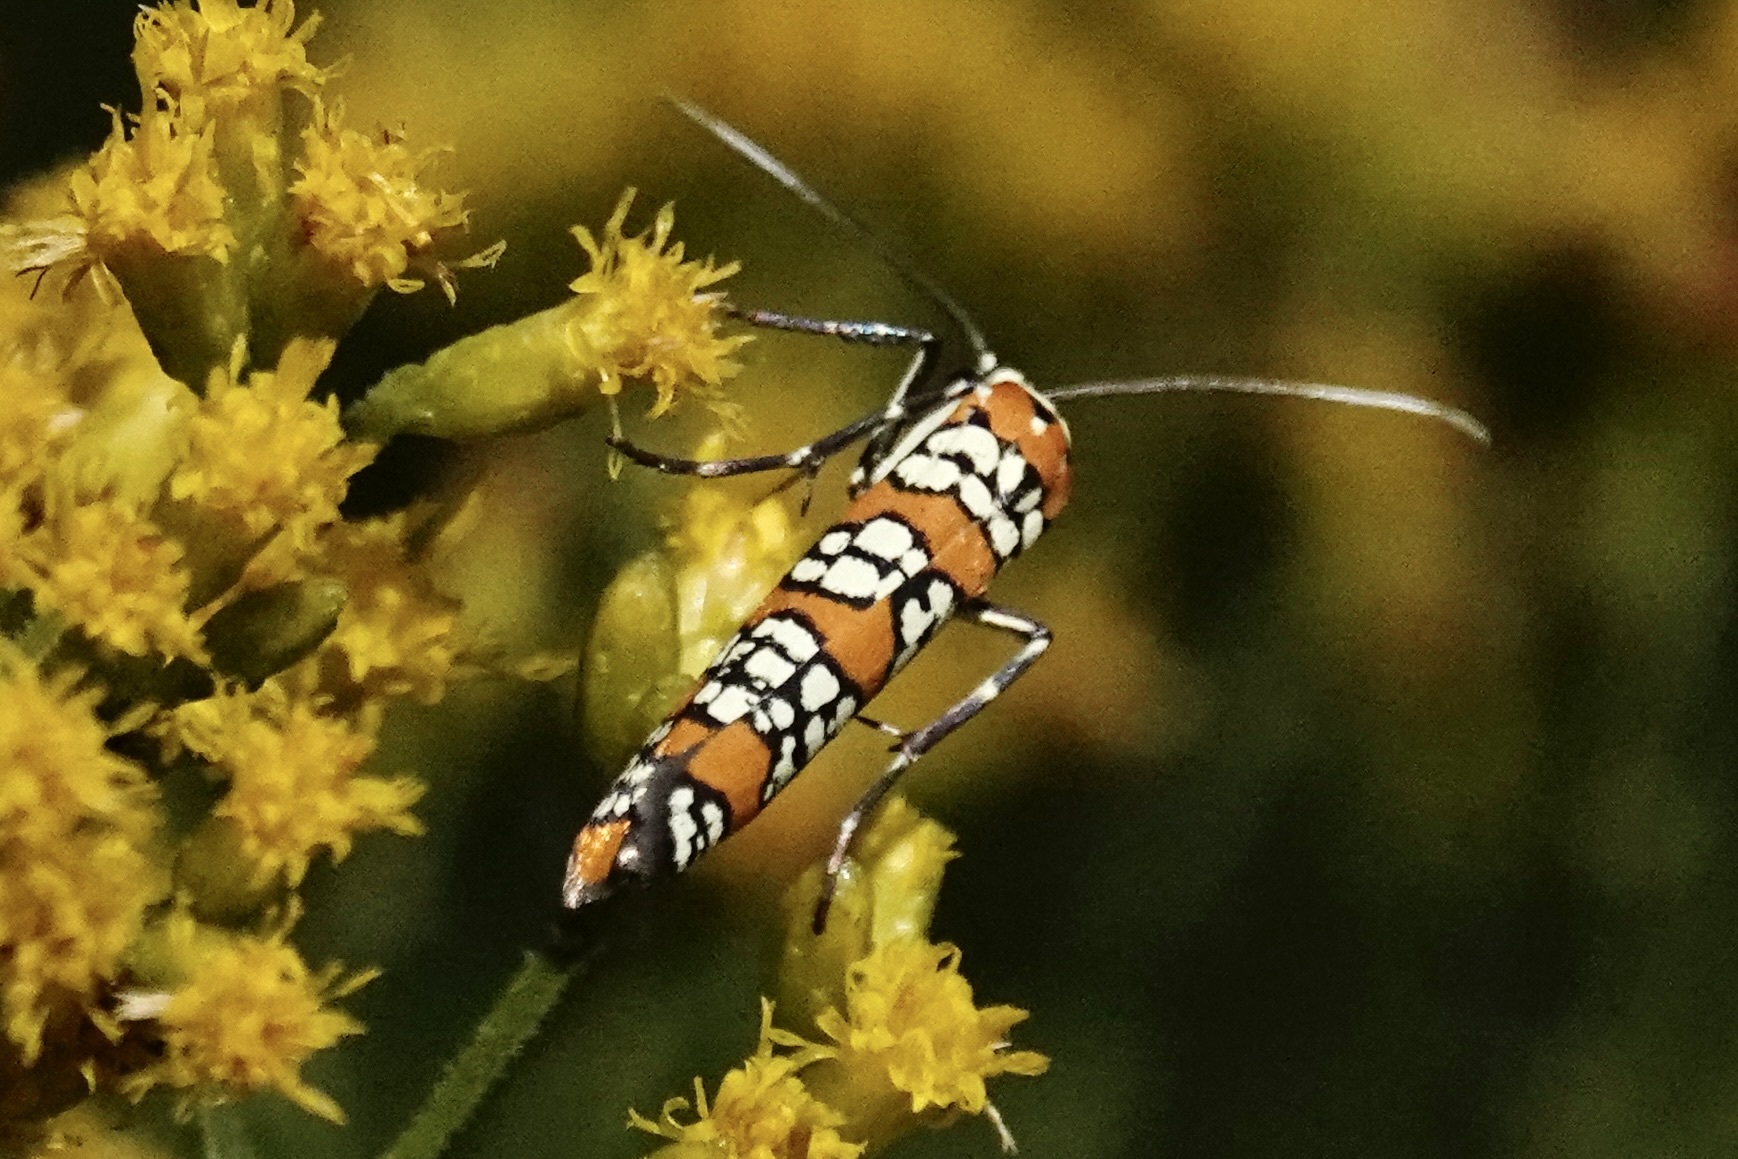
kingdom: Animalia
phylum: Arthropoda
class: Insecta
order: Lepidoptera
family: Attevidae
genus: Atteva
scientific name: Atteva punctella
